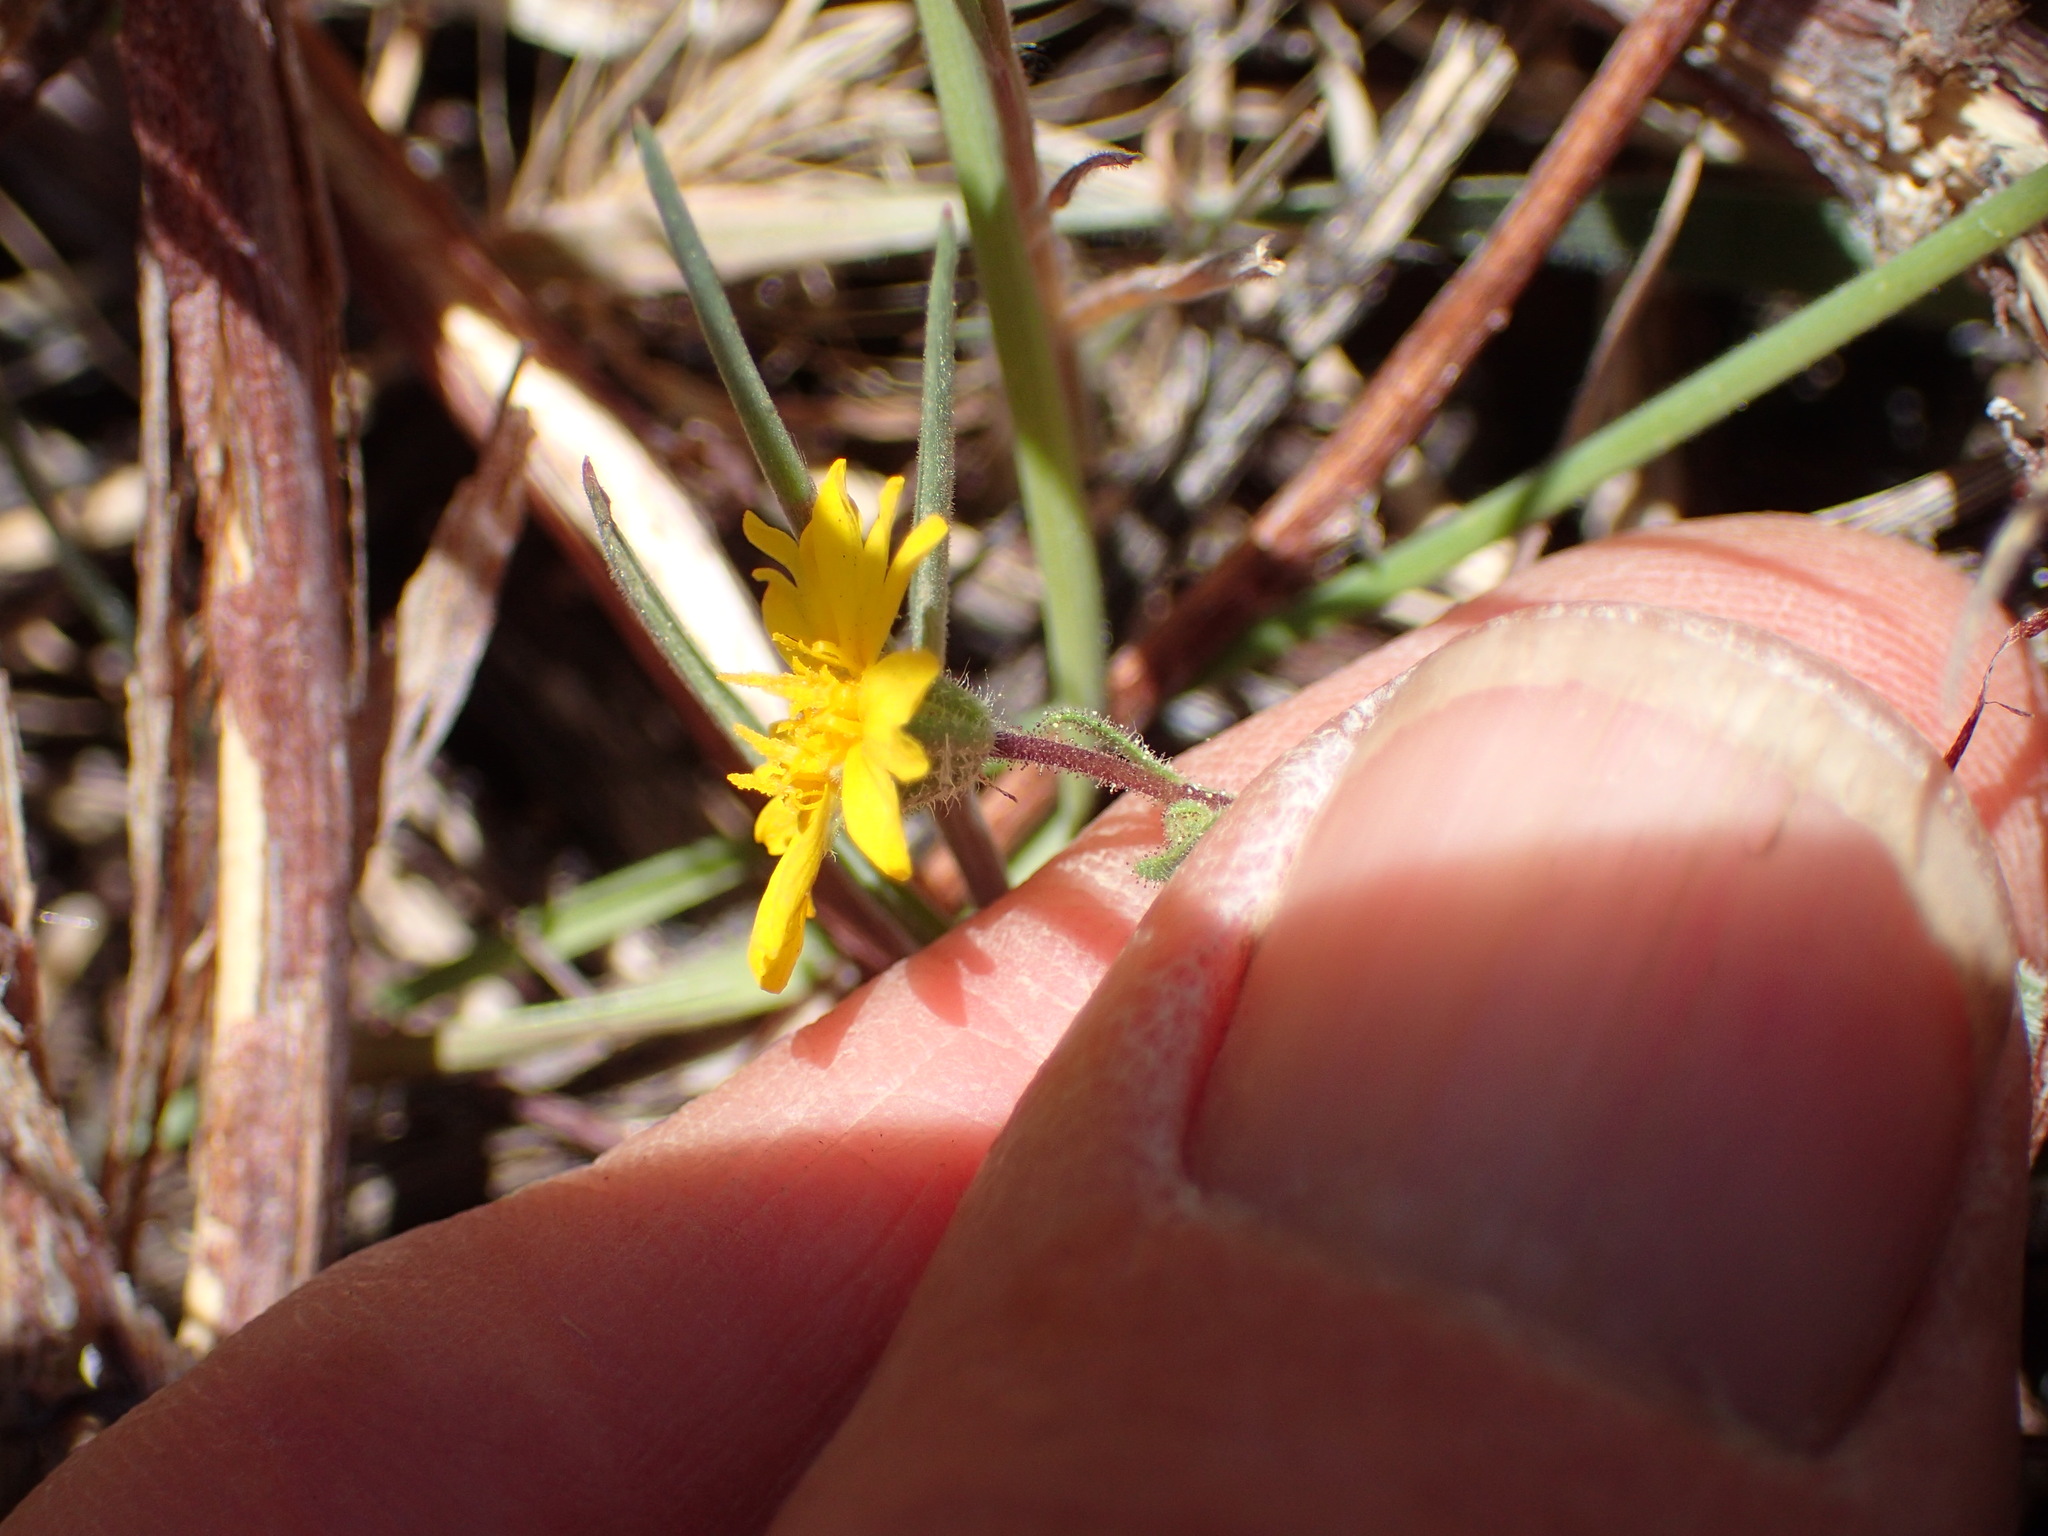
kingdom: Plantae
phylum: Tracheophyta
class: Magnoliopsida
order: Asterales
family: Asteraceae
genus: Madia
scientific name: Madia elegans
